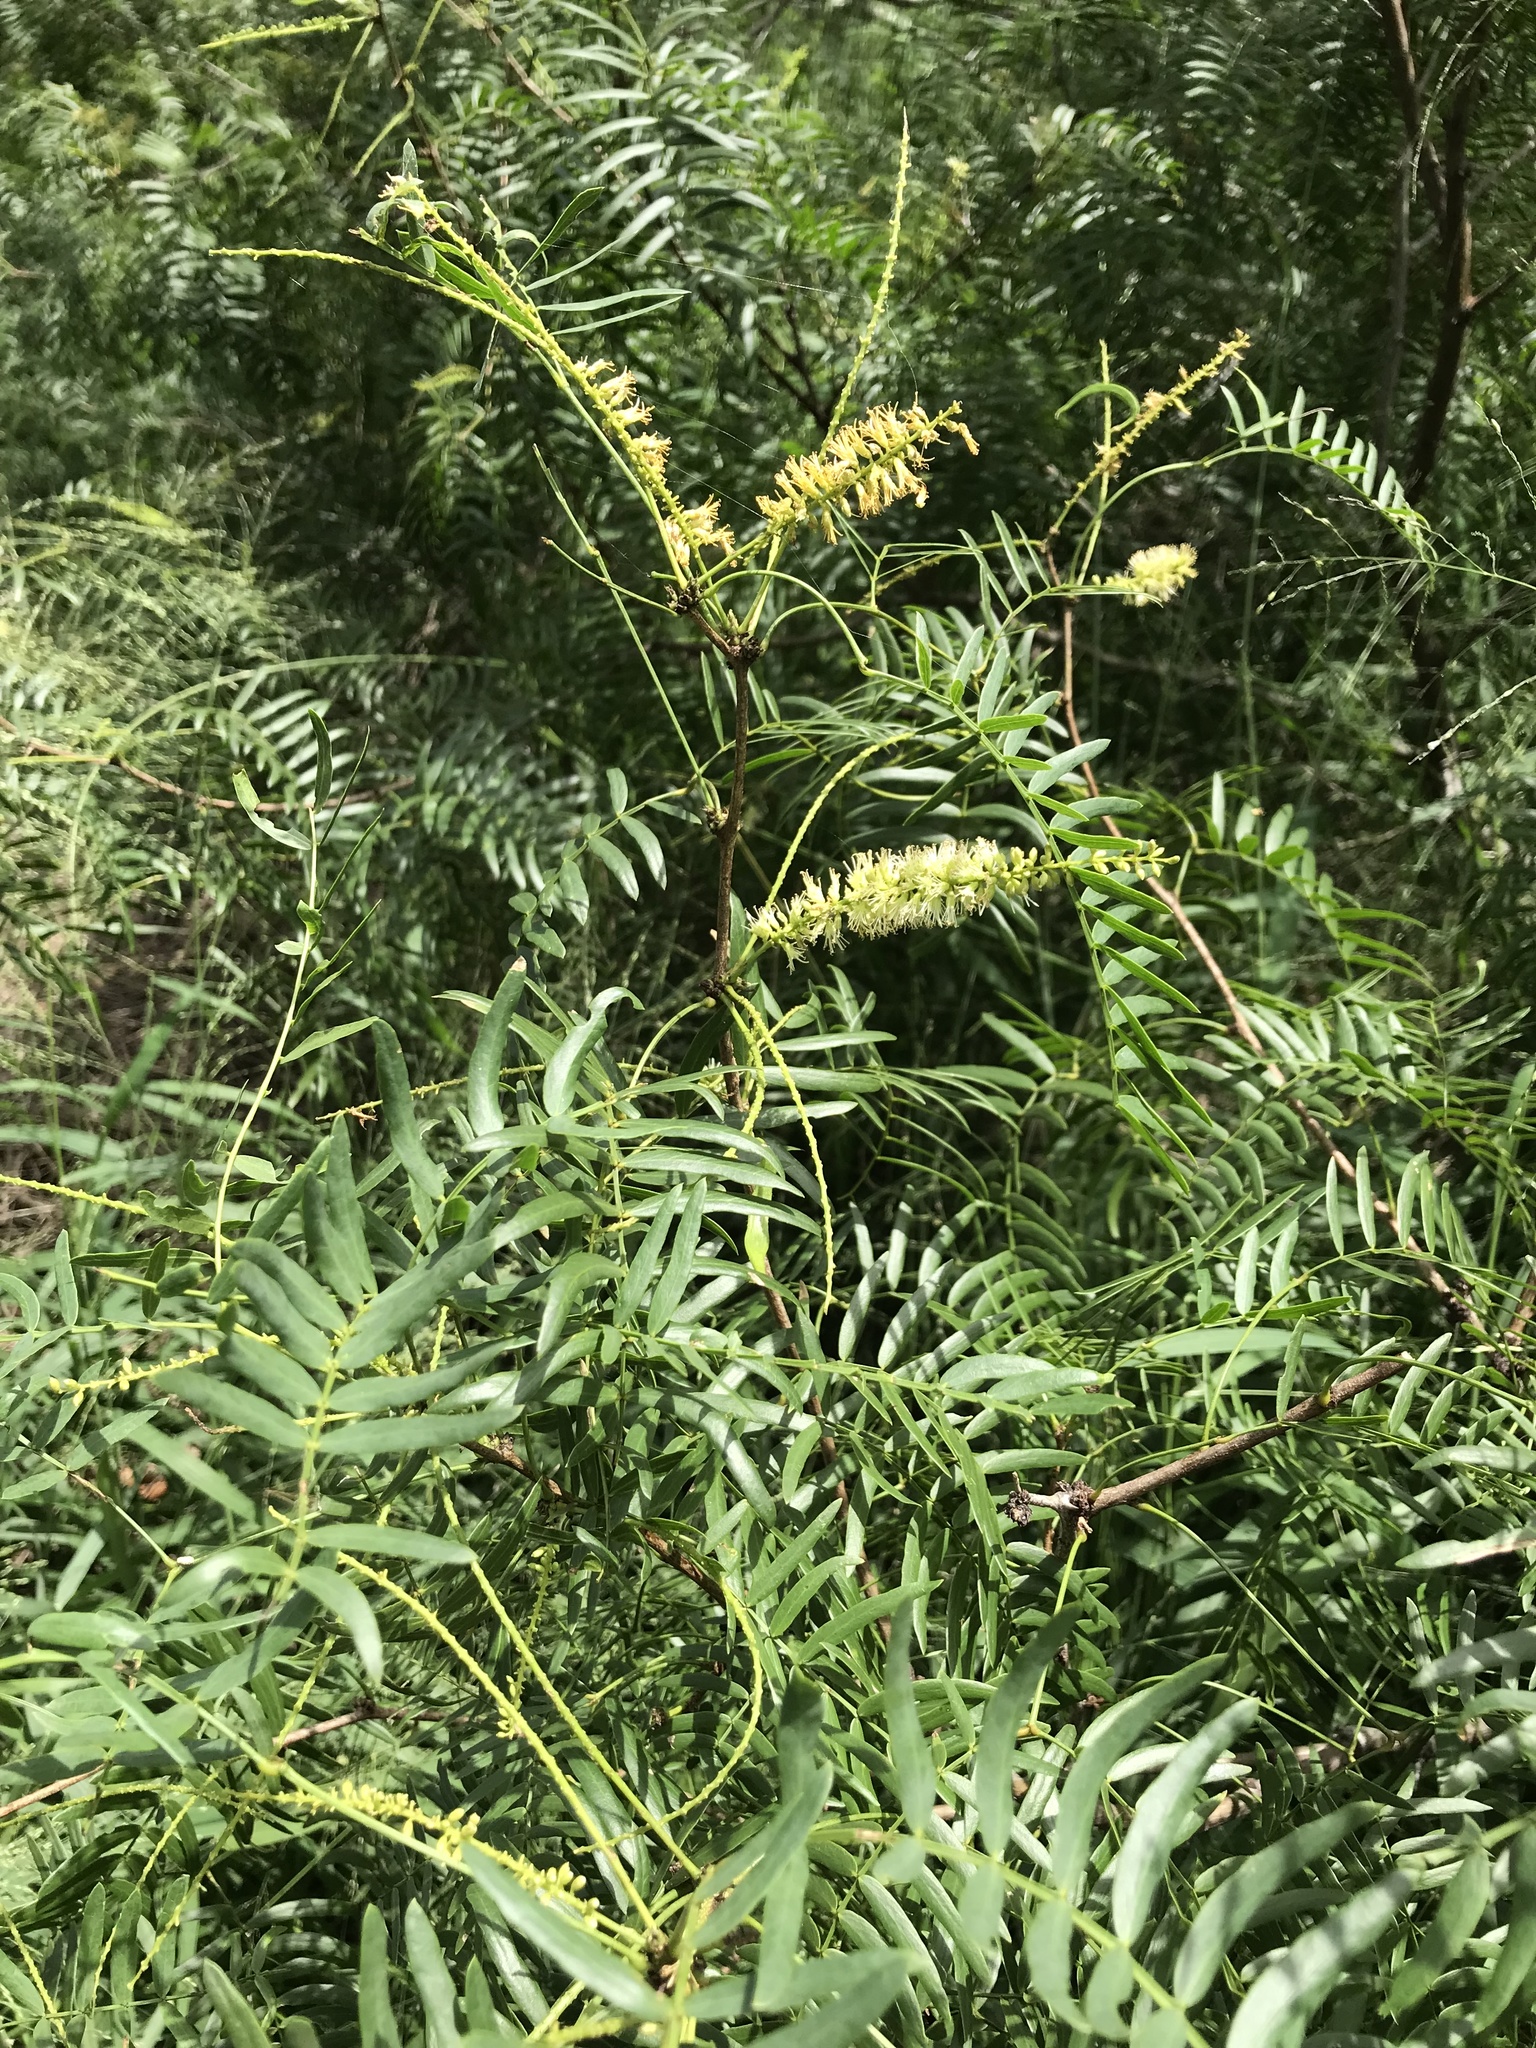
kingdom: Plantae
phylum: Tracheophyta
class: Magnoliopsida
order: Fabales
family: Fabaceae
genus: Prosopis
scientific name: Prosopis glandulosa
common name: Honey mesquite
